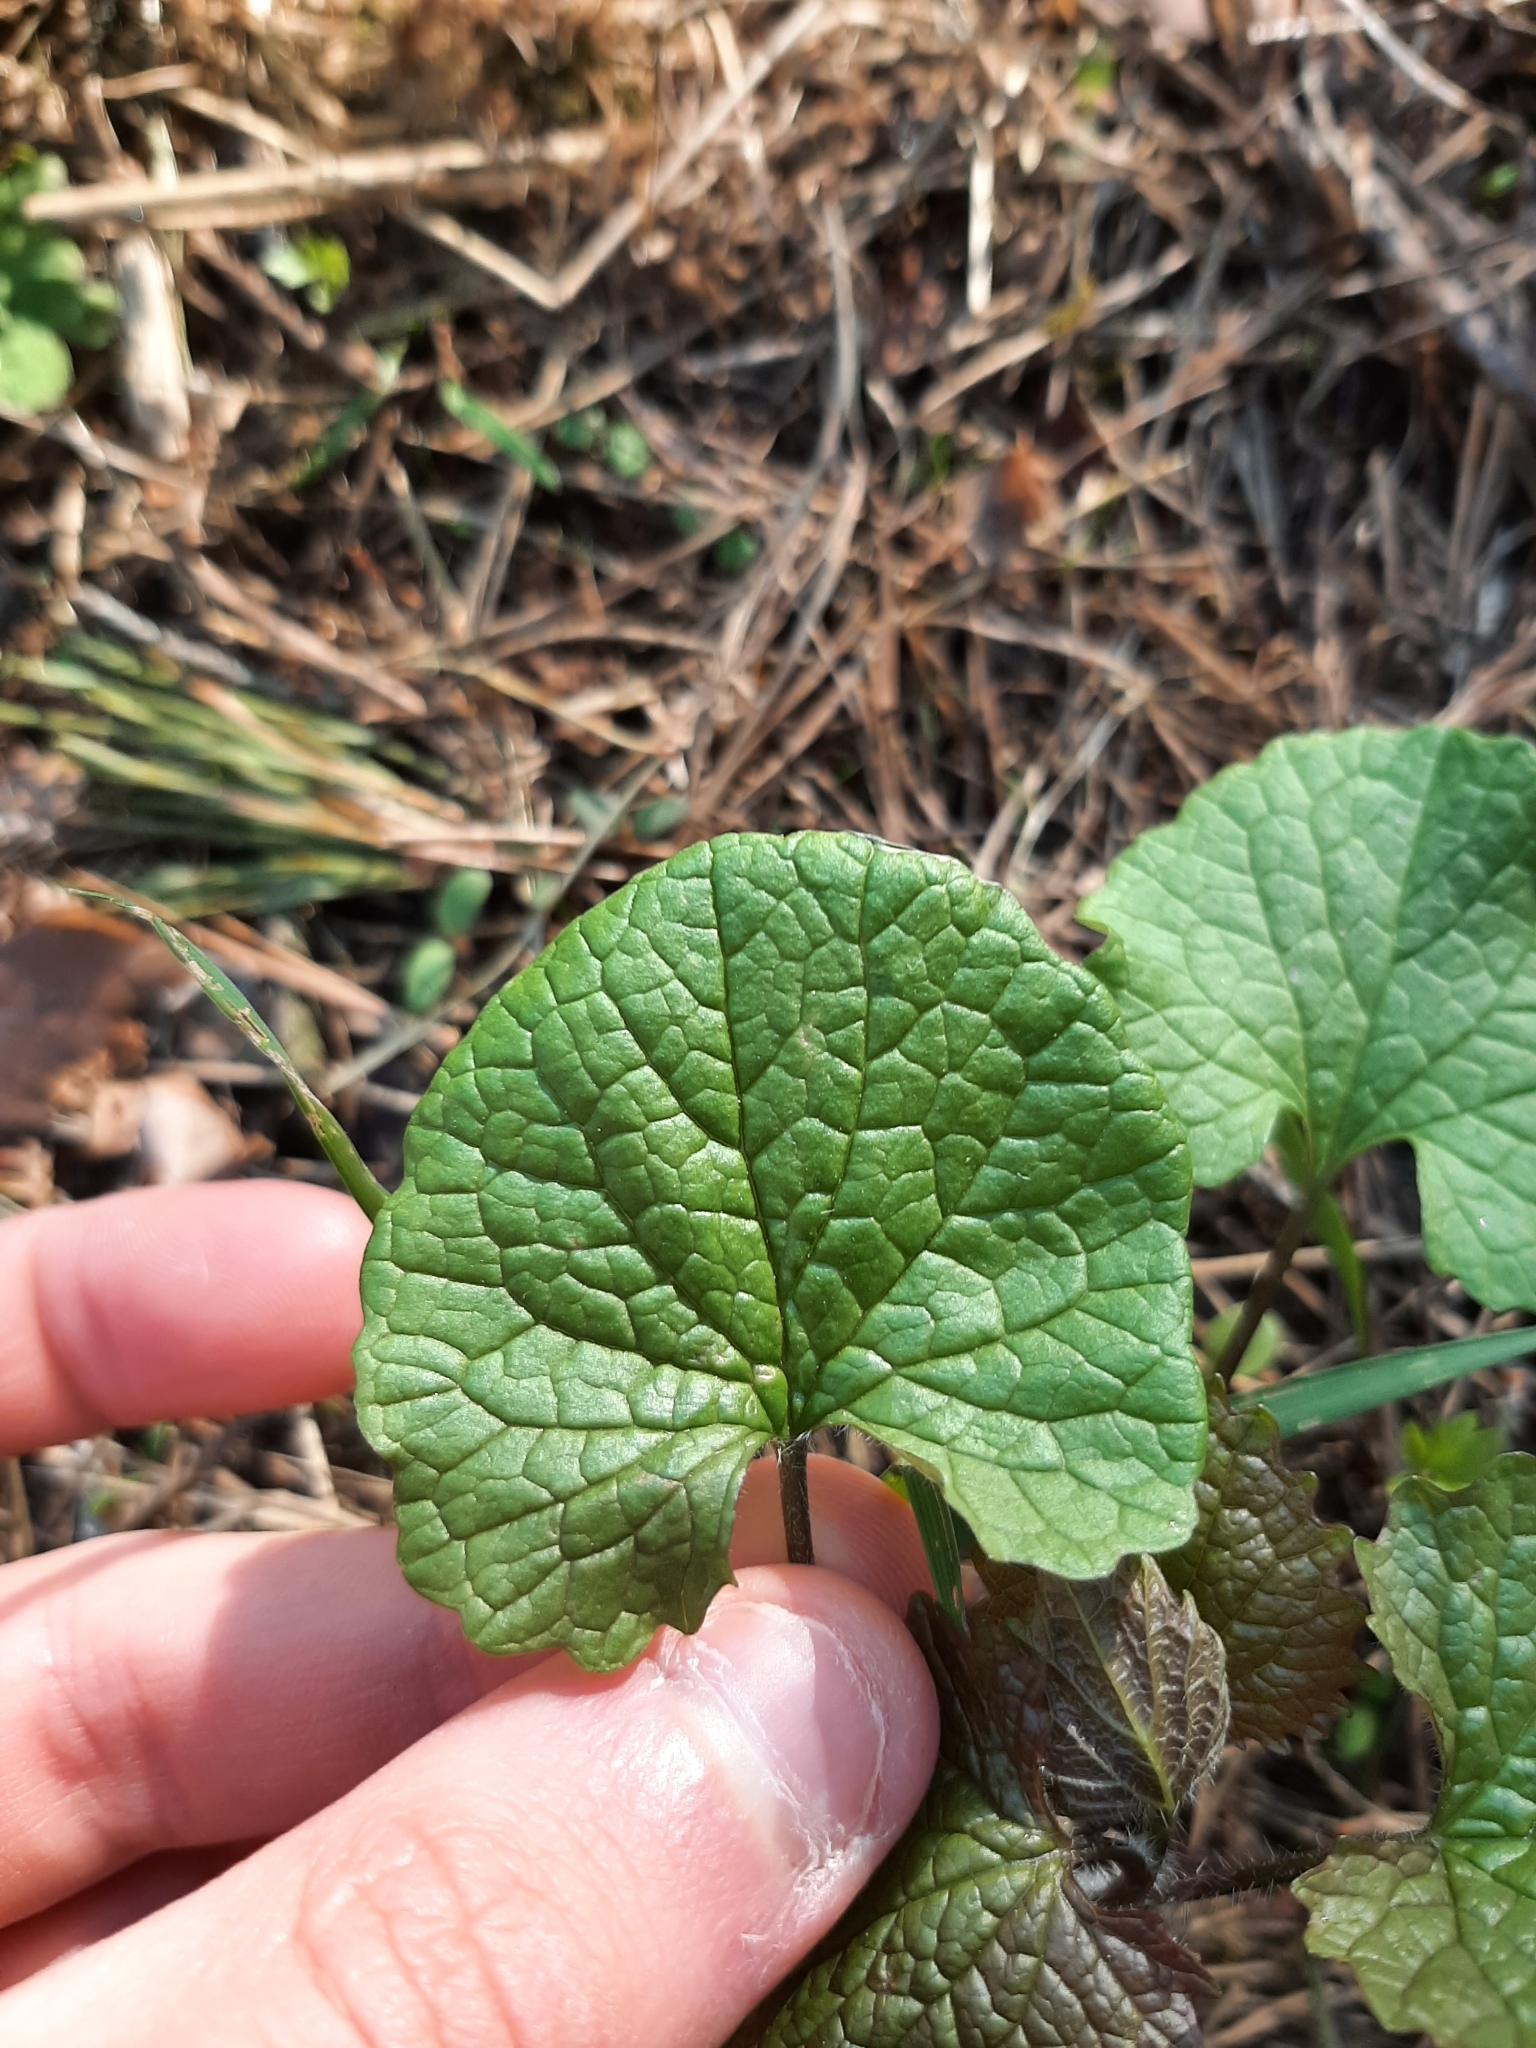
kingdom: Plantae
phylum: Tracheophyta
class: Magnoliopsida
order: Brassicales
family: Brassicaceae
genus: Alliaria
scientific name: Alliaria petiolata
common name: Garlic mustard
